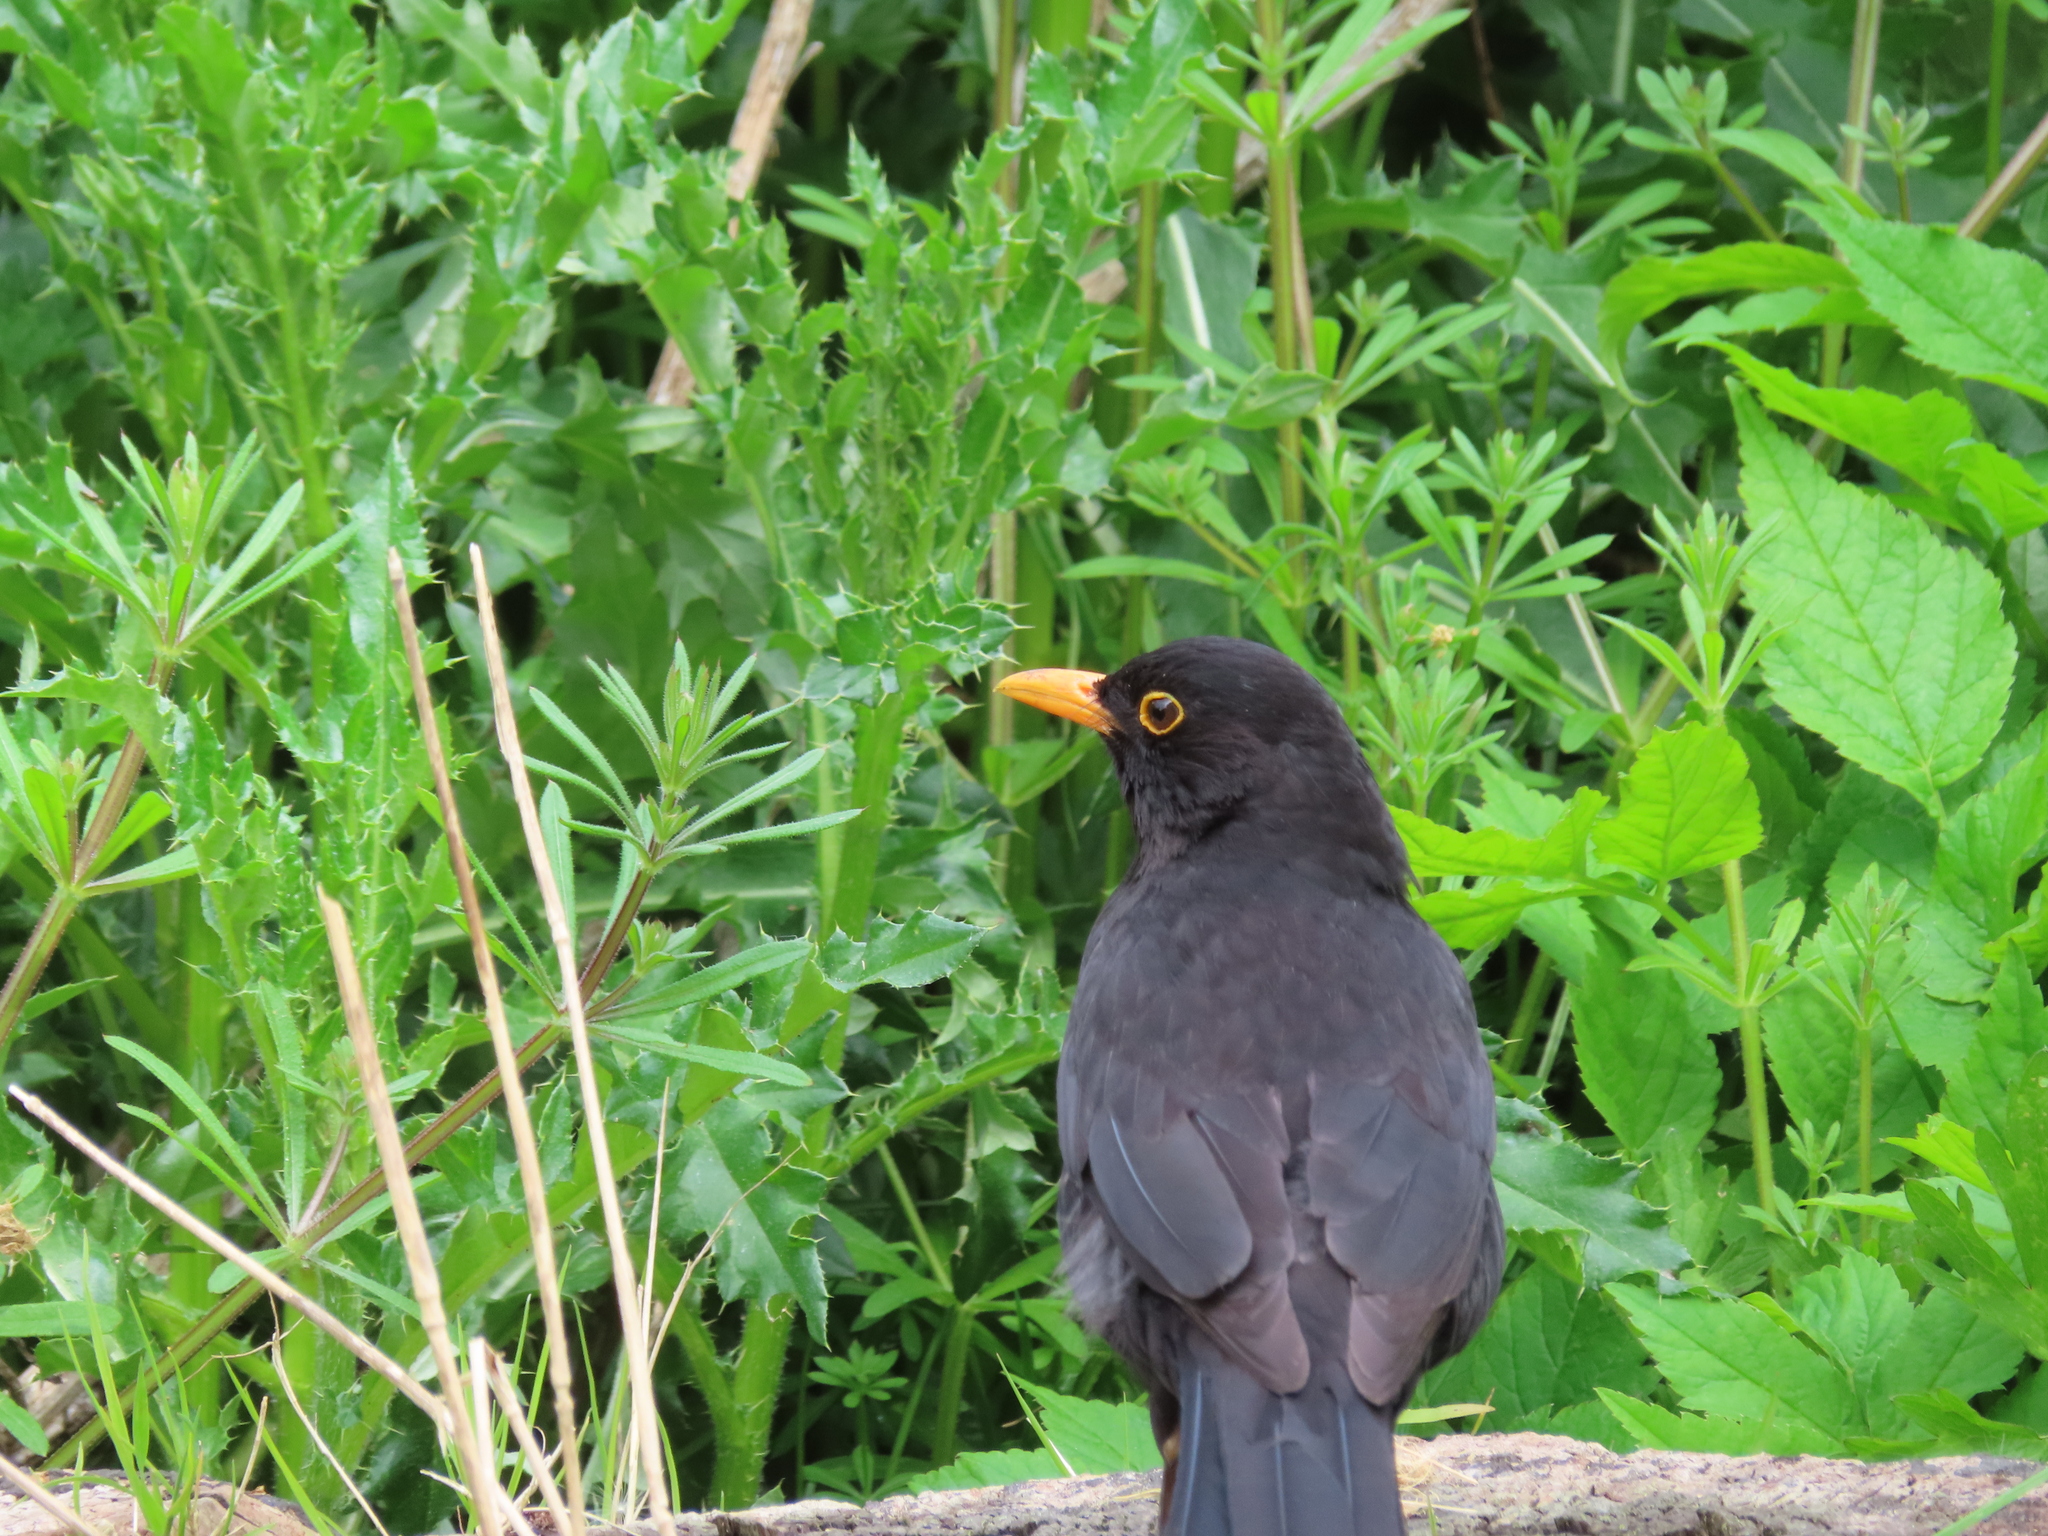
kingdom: Animalia
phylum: Chordata
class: Aves
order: Passeriformes
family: Turdidae
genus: Turdus
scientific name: Turdus merula
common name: Common blackbird
